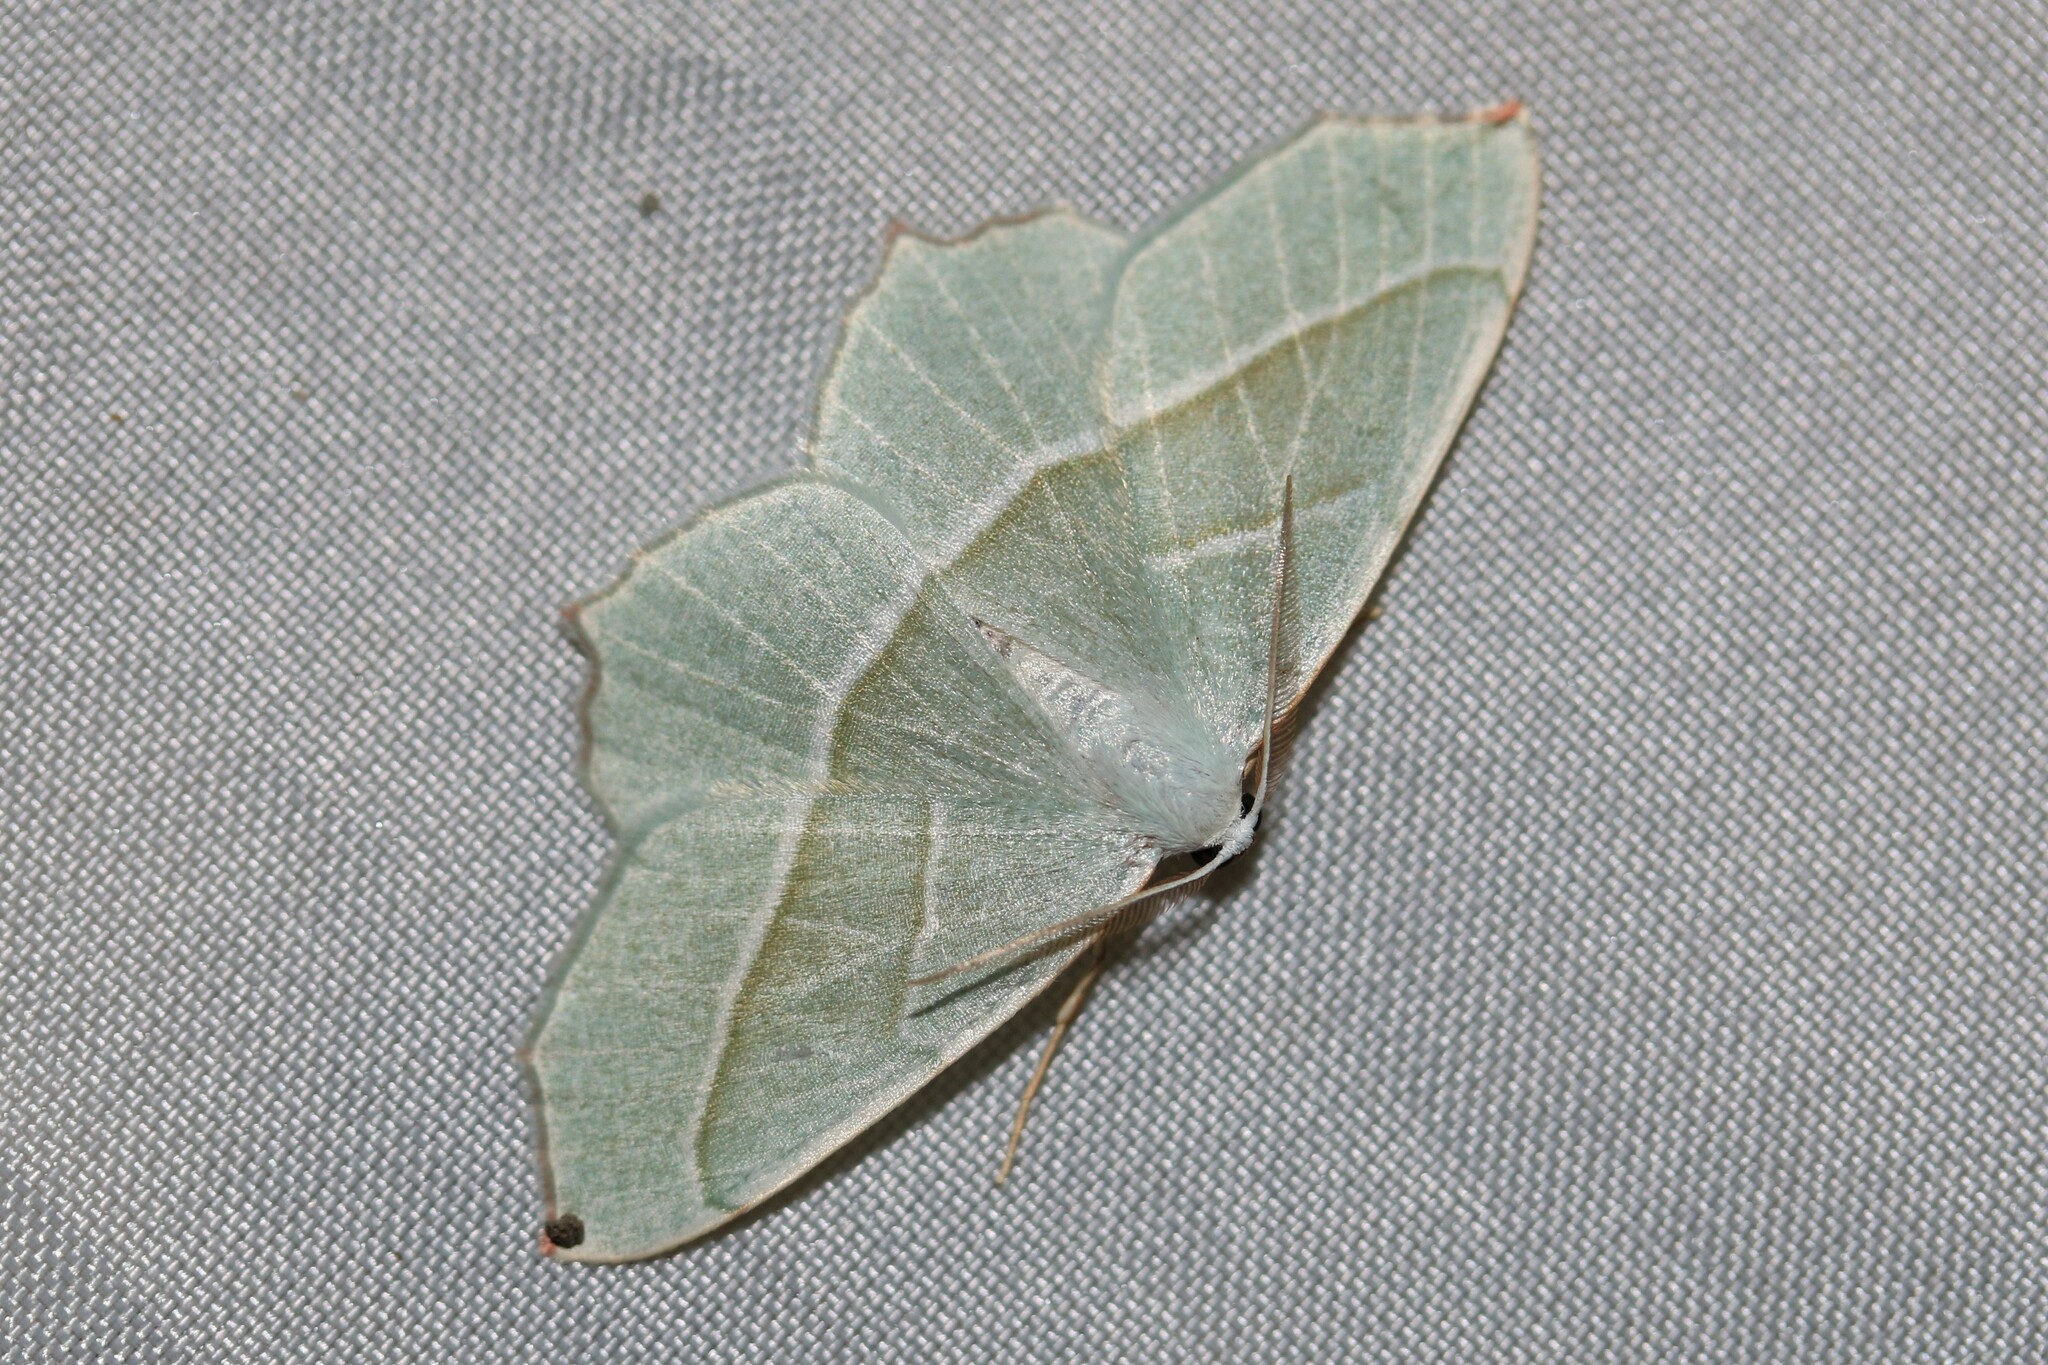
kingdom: Animalia
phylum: Arthropoda
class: Insecta
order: Lepidoptera
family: Geometridae
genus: Campaea
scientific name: Campaea margaritaria
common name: Light emerald
